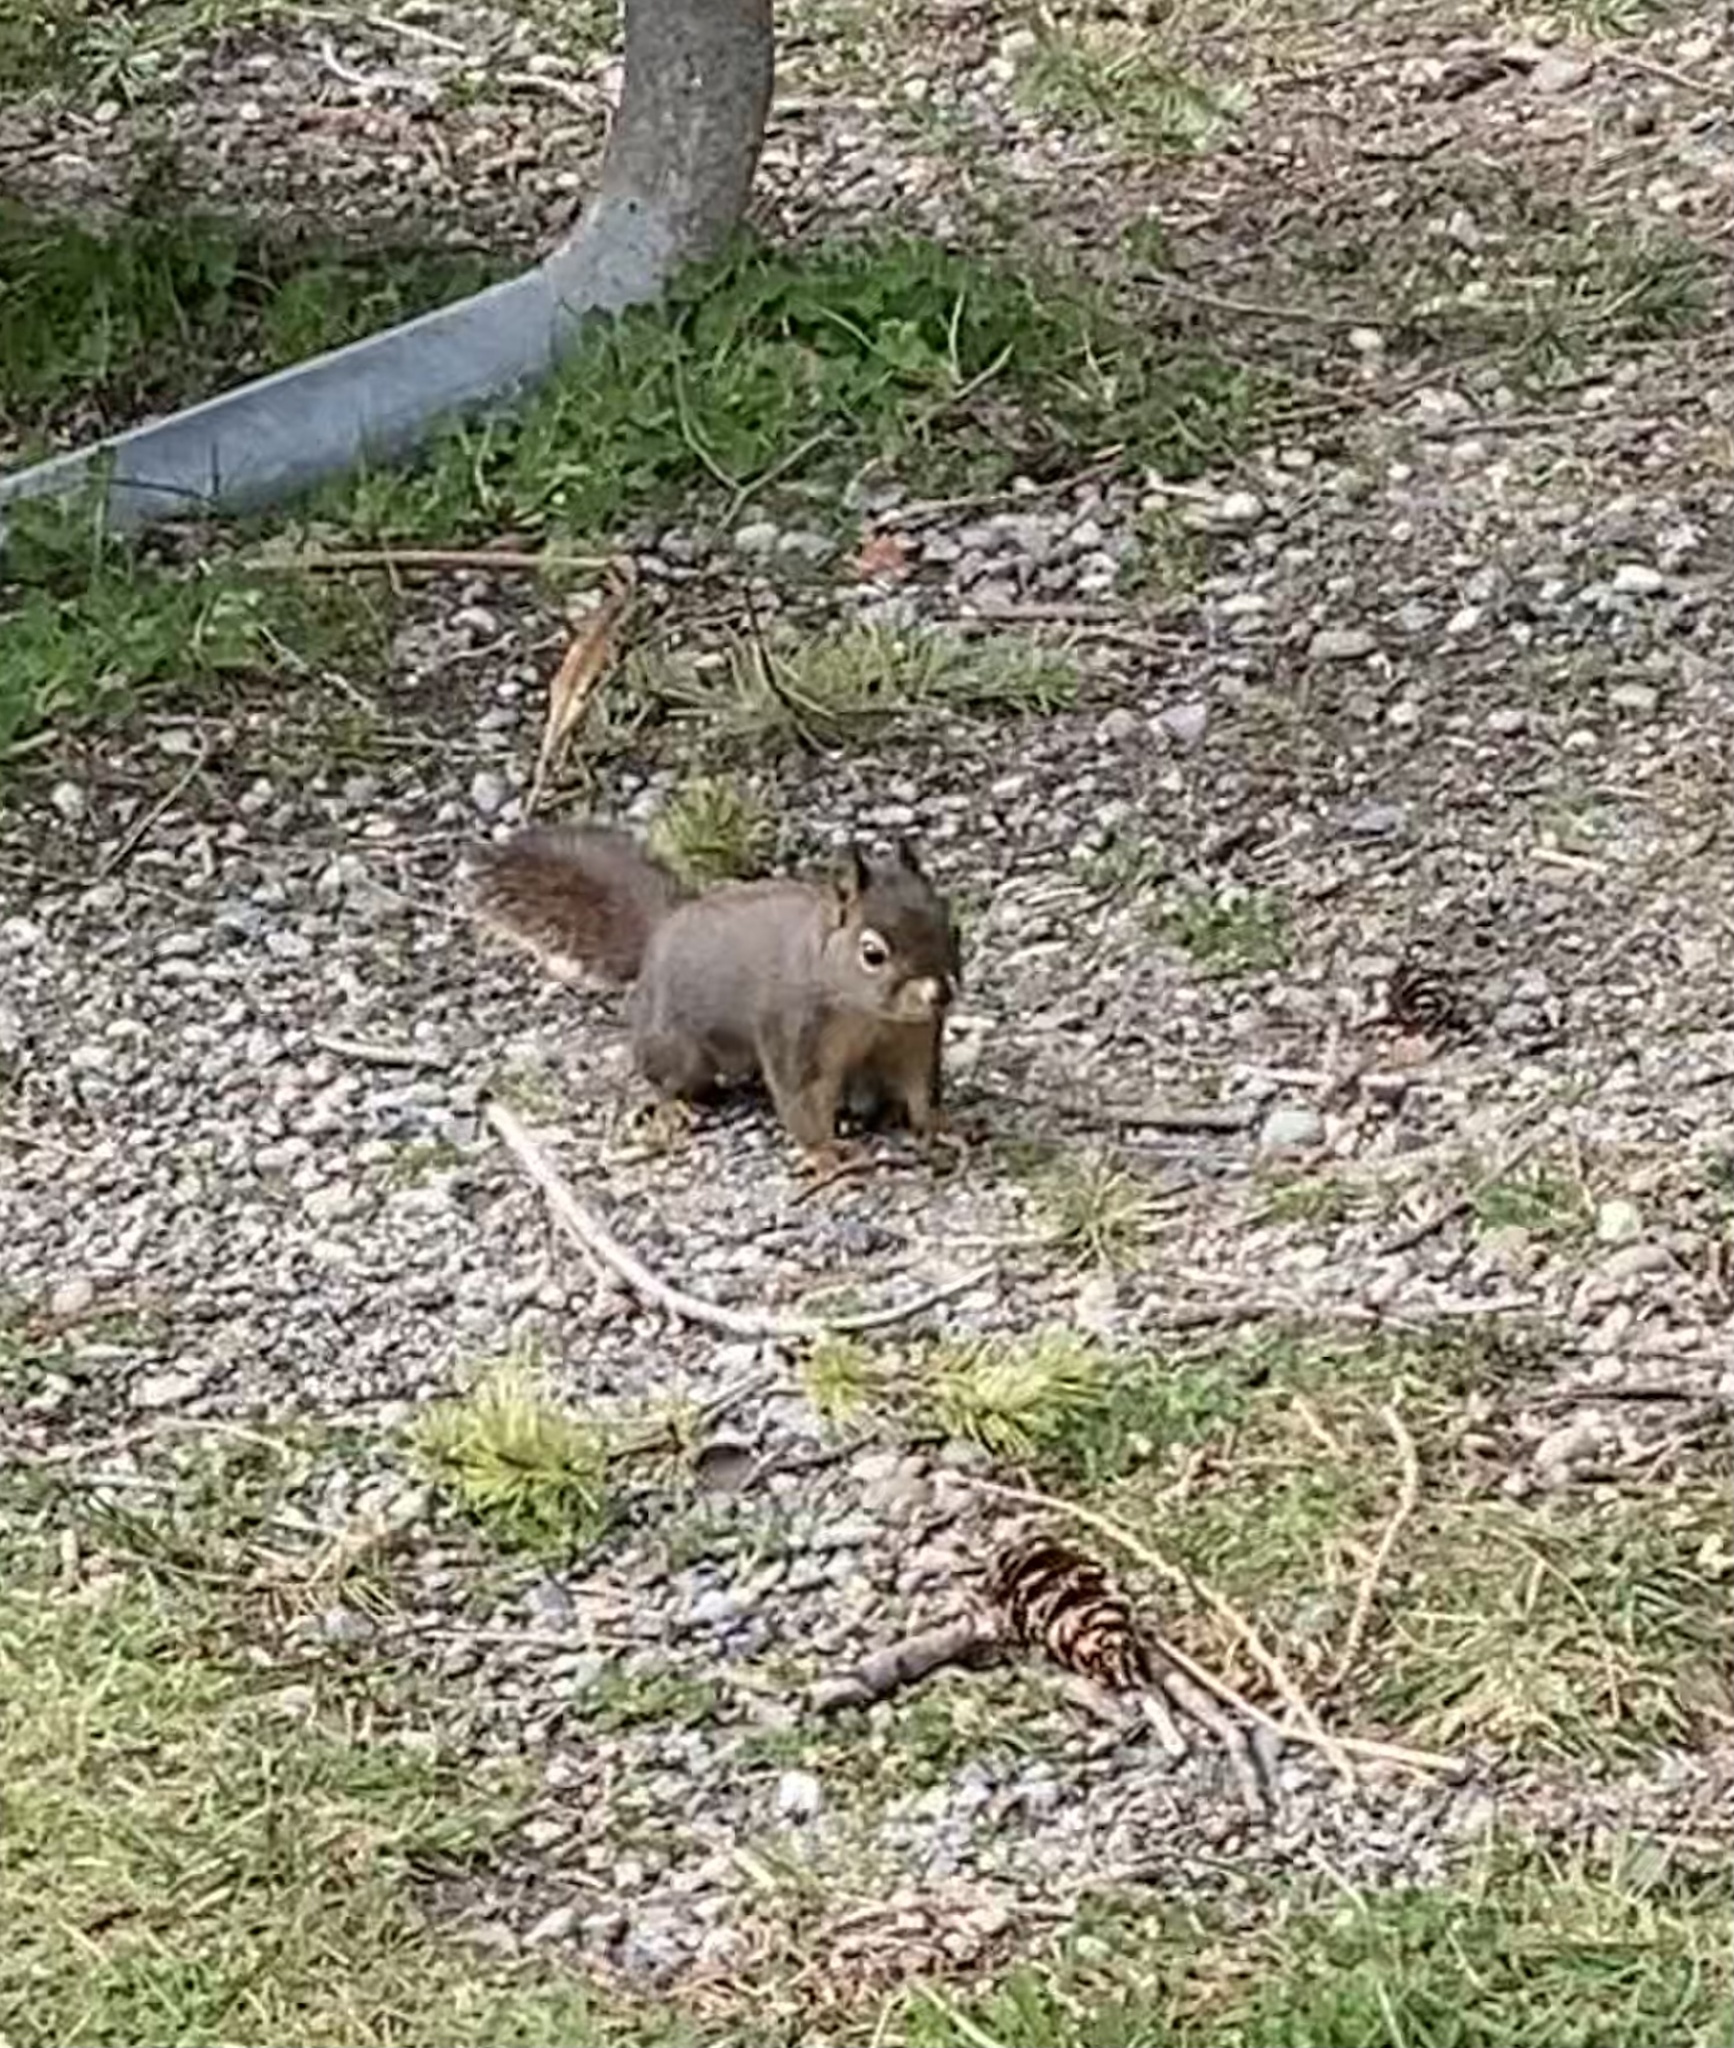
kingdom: Animalia
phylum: Chordata
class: Mammalia
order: Rodentia
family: Sciuridae
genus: Tamiasciurus
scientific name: Tamiasciurus douglasii
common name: Douglas's squirrel
